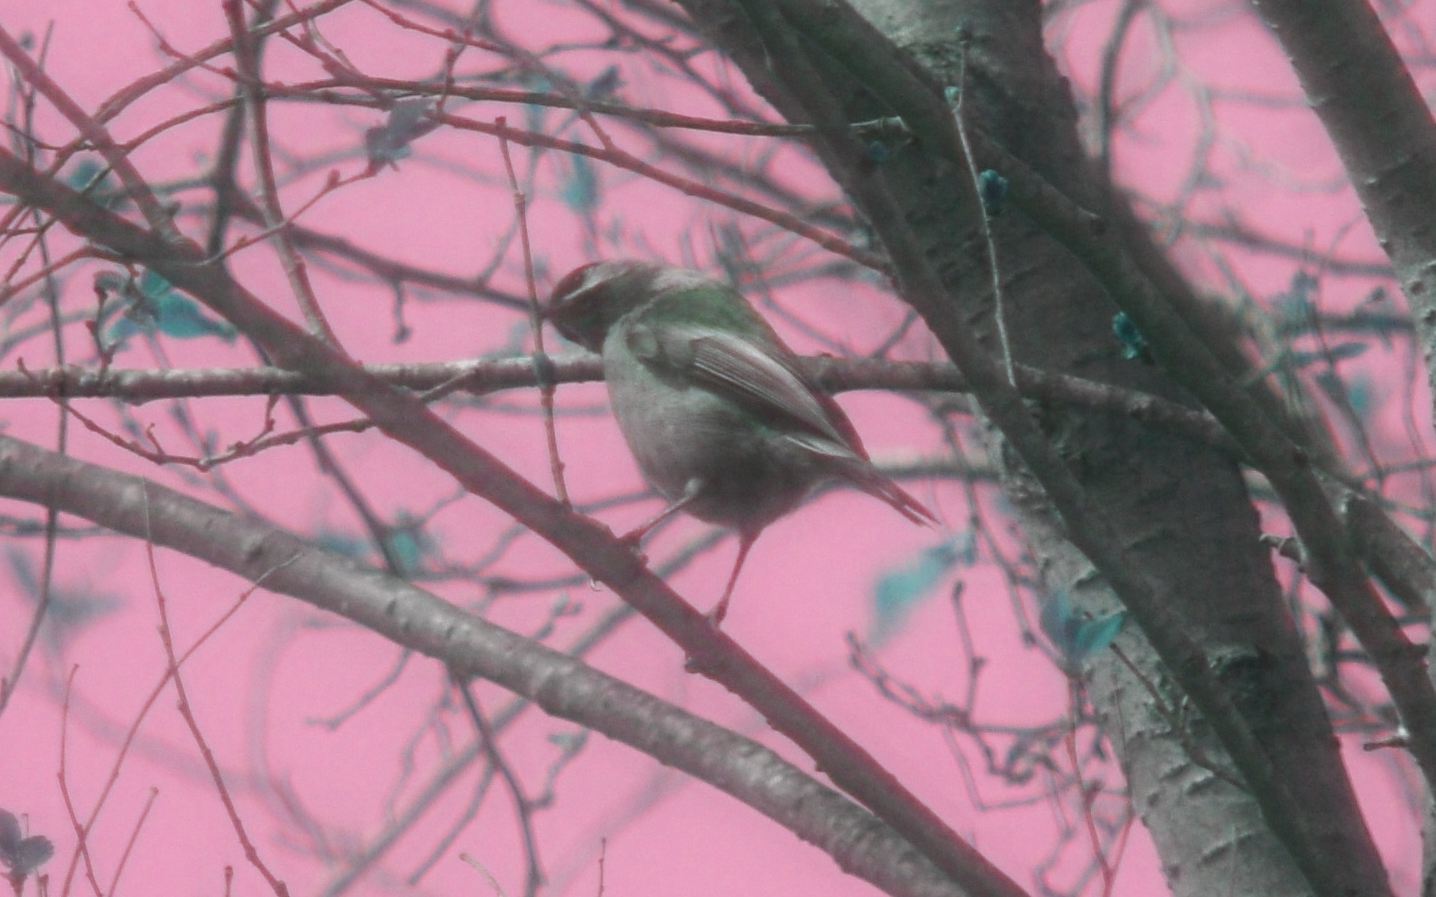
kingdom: Animalia
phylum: Chordata
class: Aves
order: Passeriformes
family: Paridae
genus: Poecile
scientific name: Poecile rufescens
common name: Chestnut-backed chickadee
